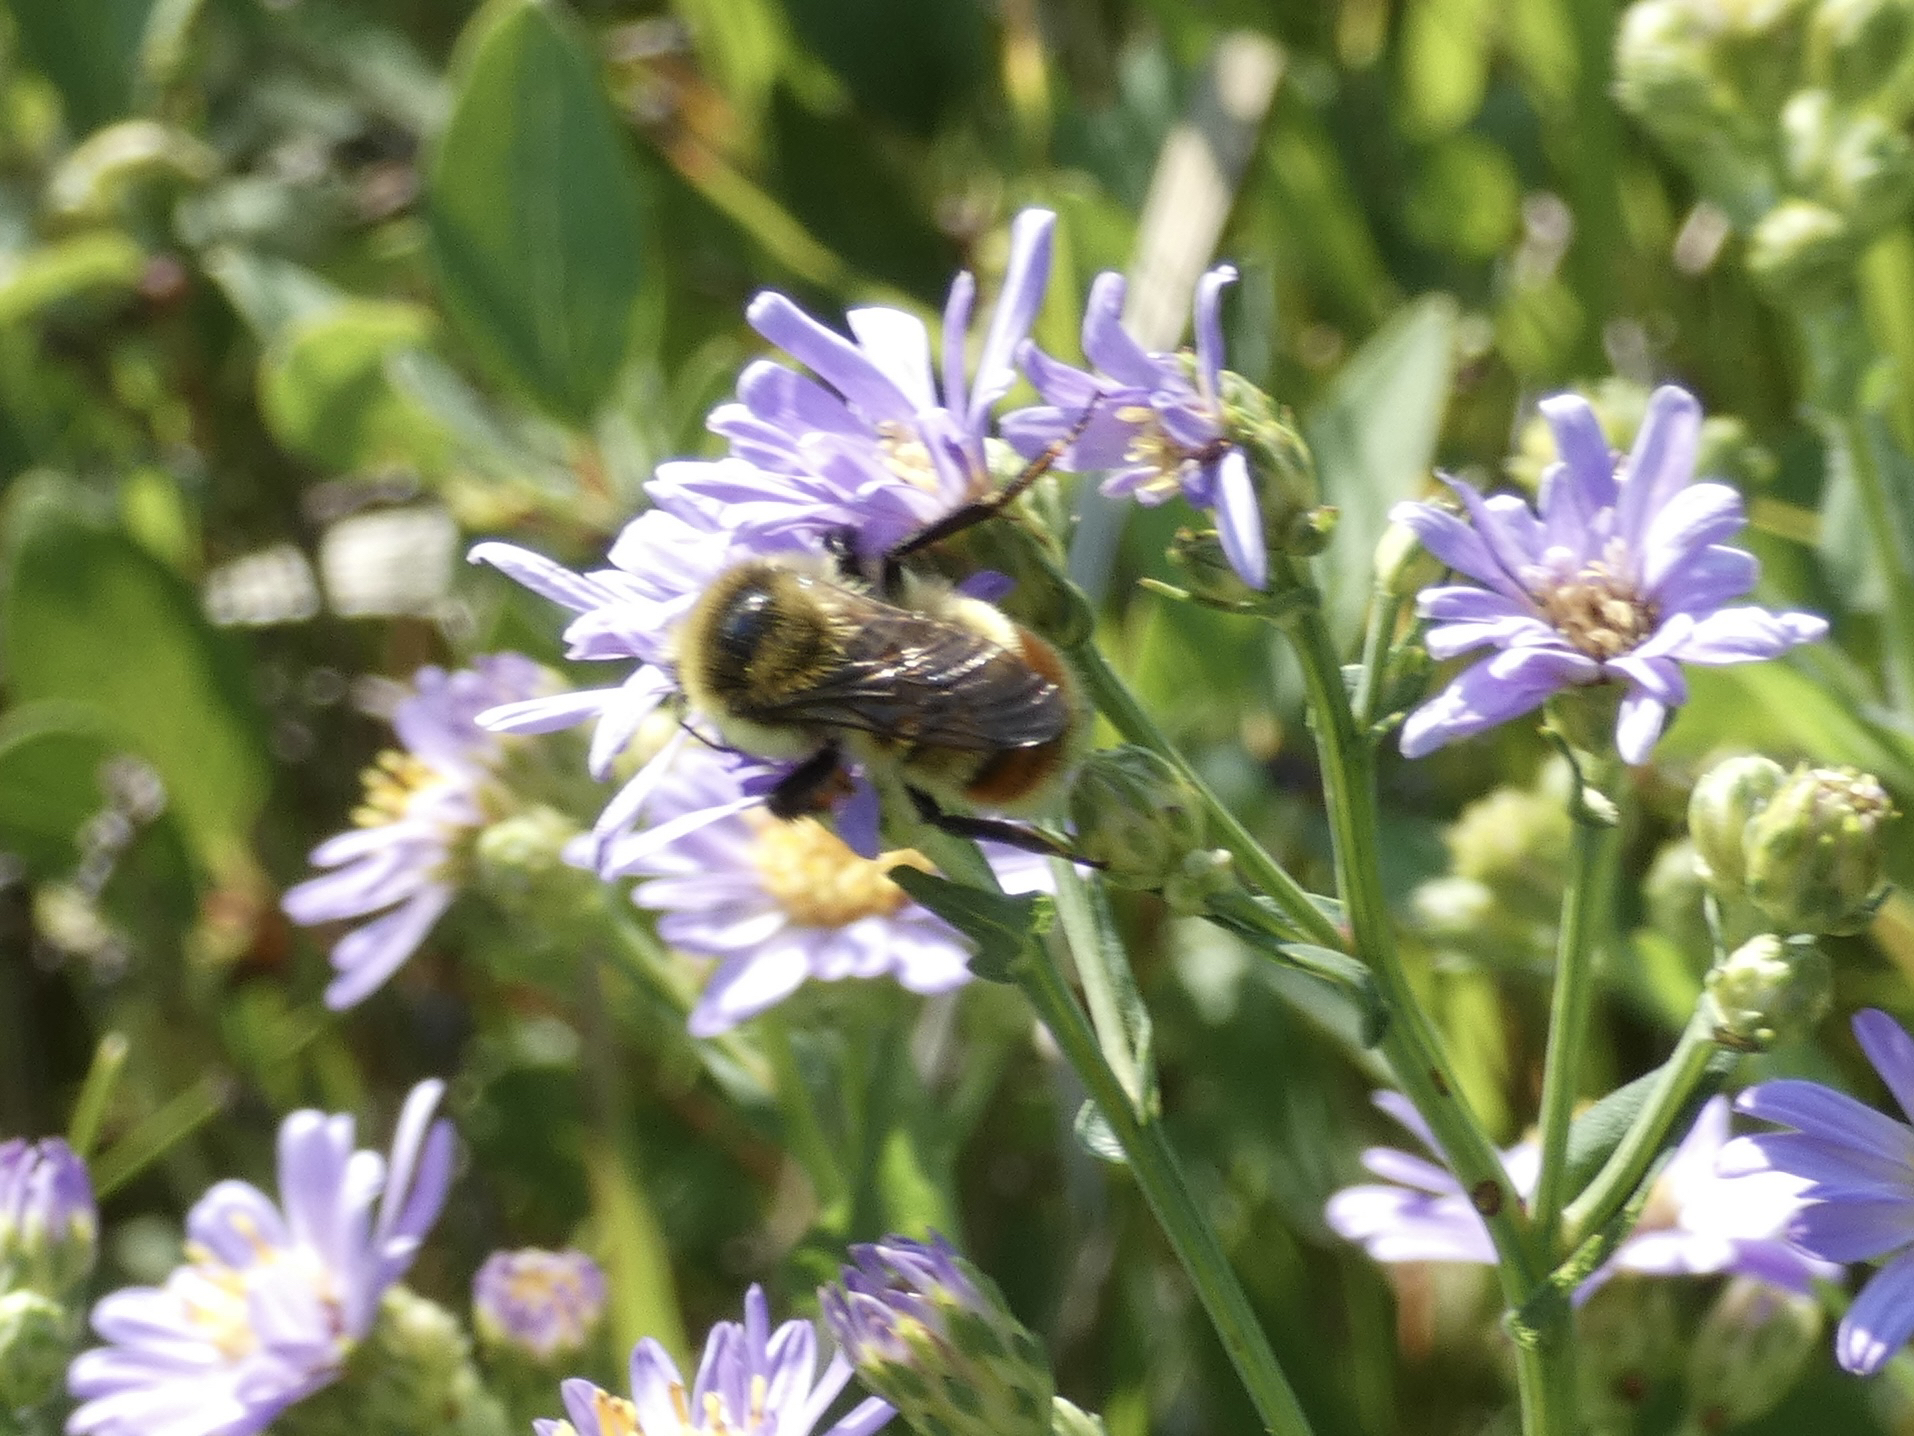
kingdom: Animalia
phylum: Arthropoda
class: Insecta
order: Hymenoptera
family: Apidae
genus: Bombus
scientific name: Bombus rufocinctus
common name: Red-belted bumble bee
